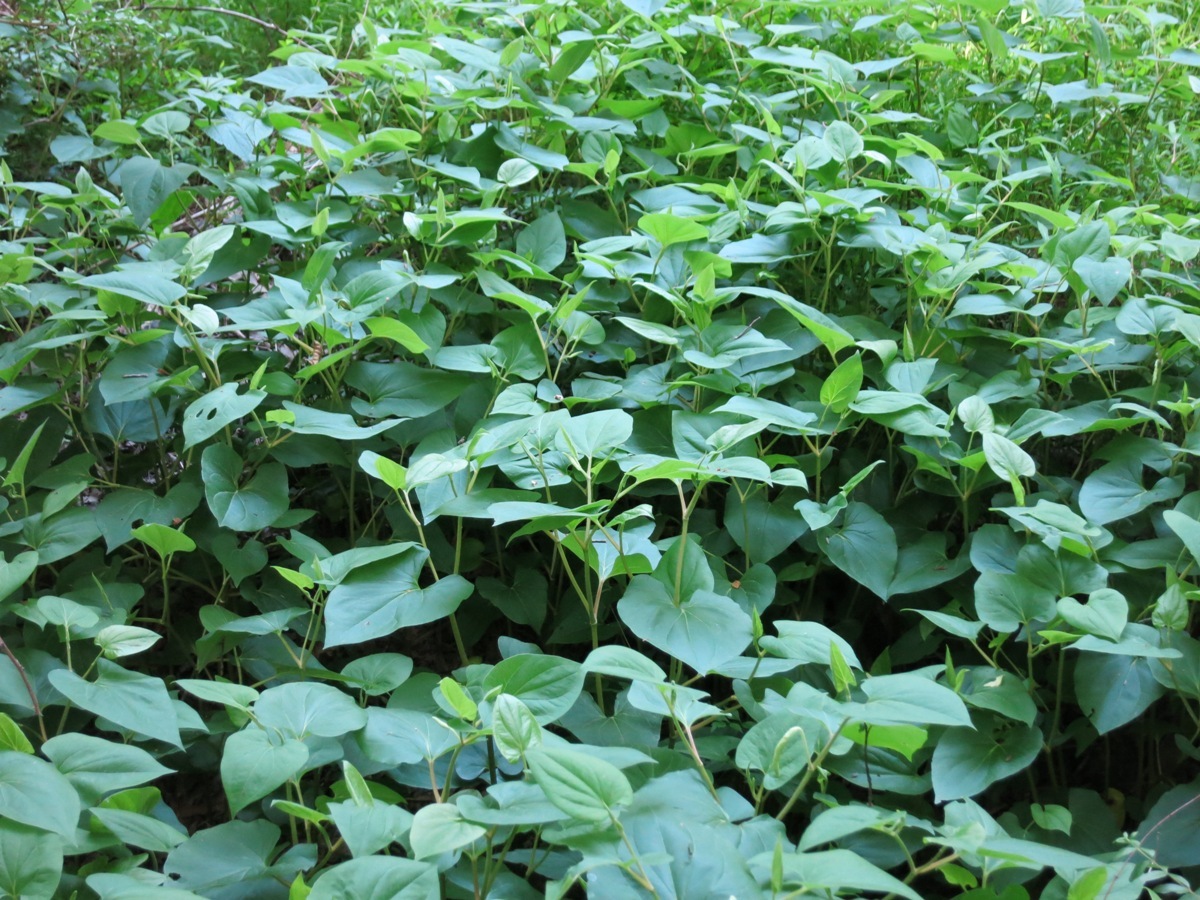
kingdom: Plantae
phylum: Tracheophyta
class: Magnoliopsida
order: Piperales
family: Saururaceae
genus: Saururus
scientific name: Saururus cernuus
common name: Lizard's-tail
